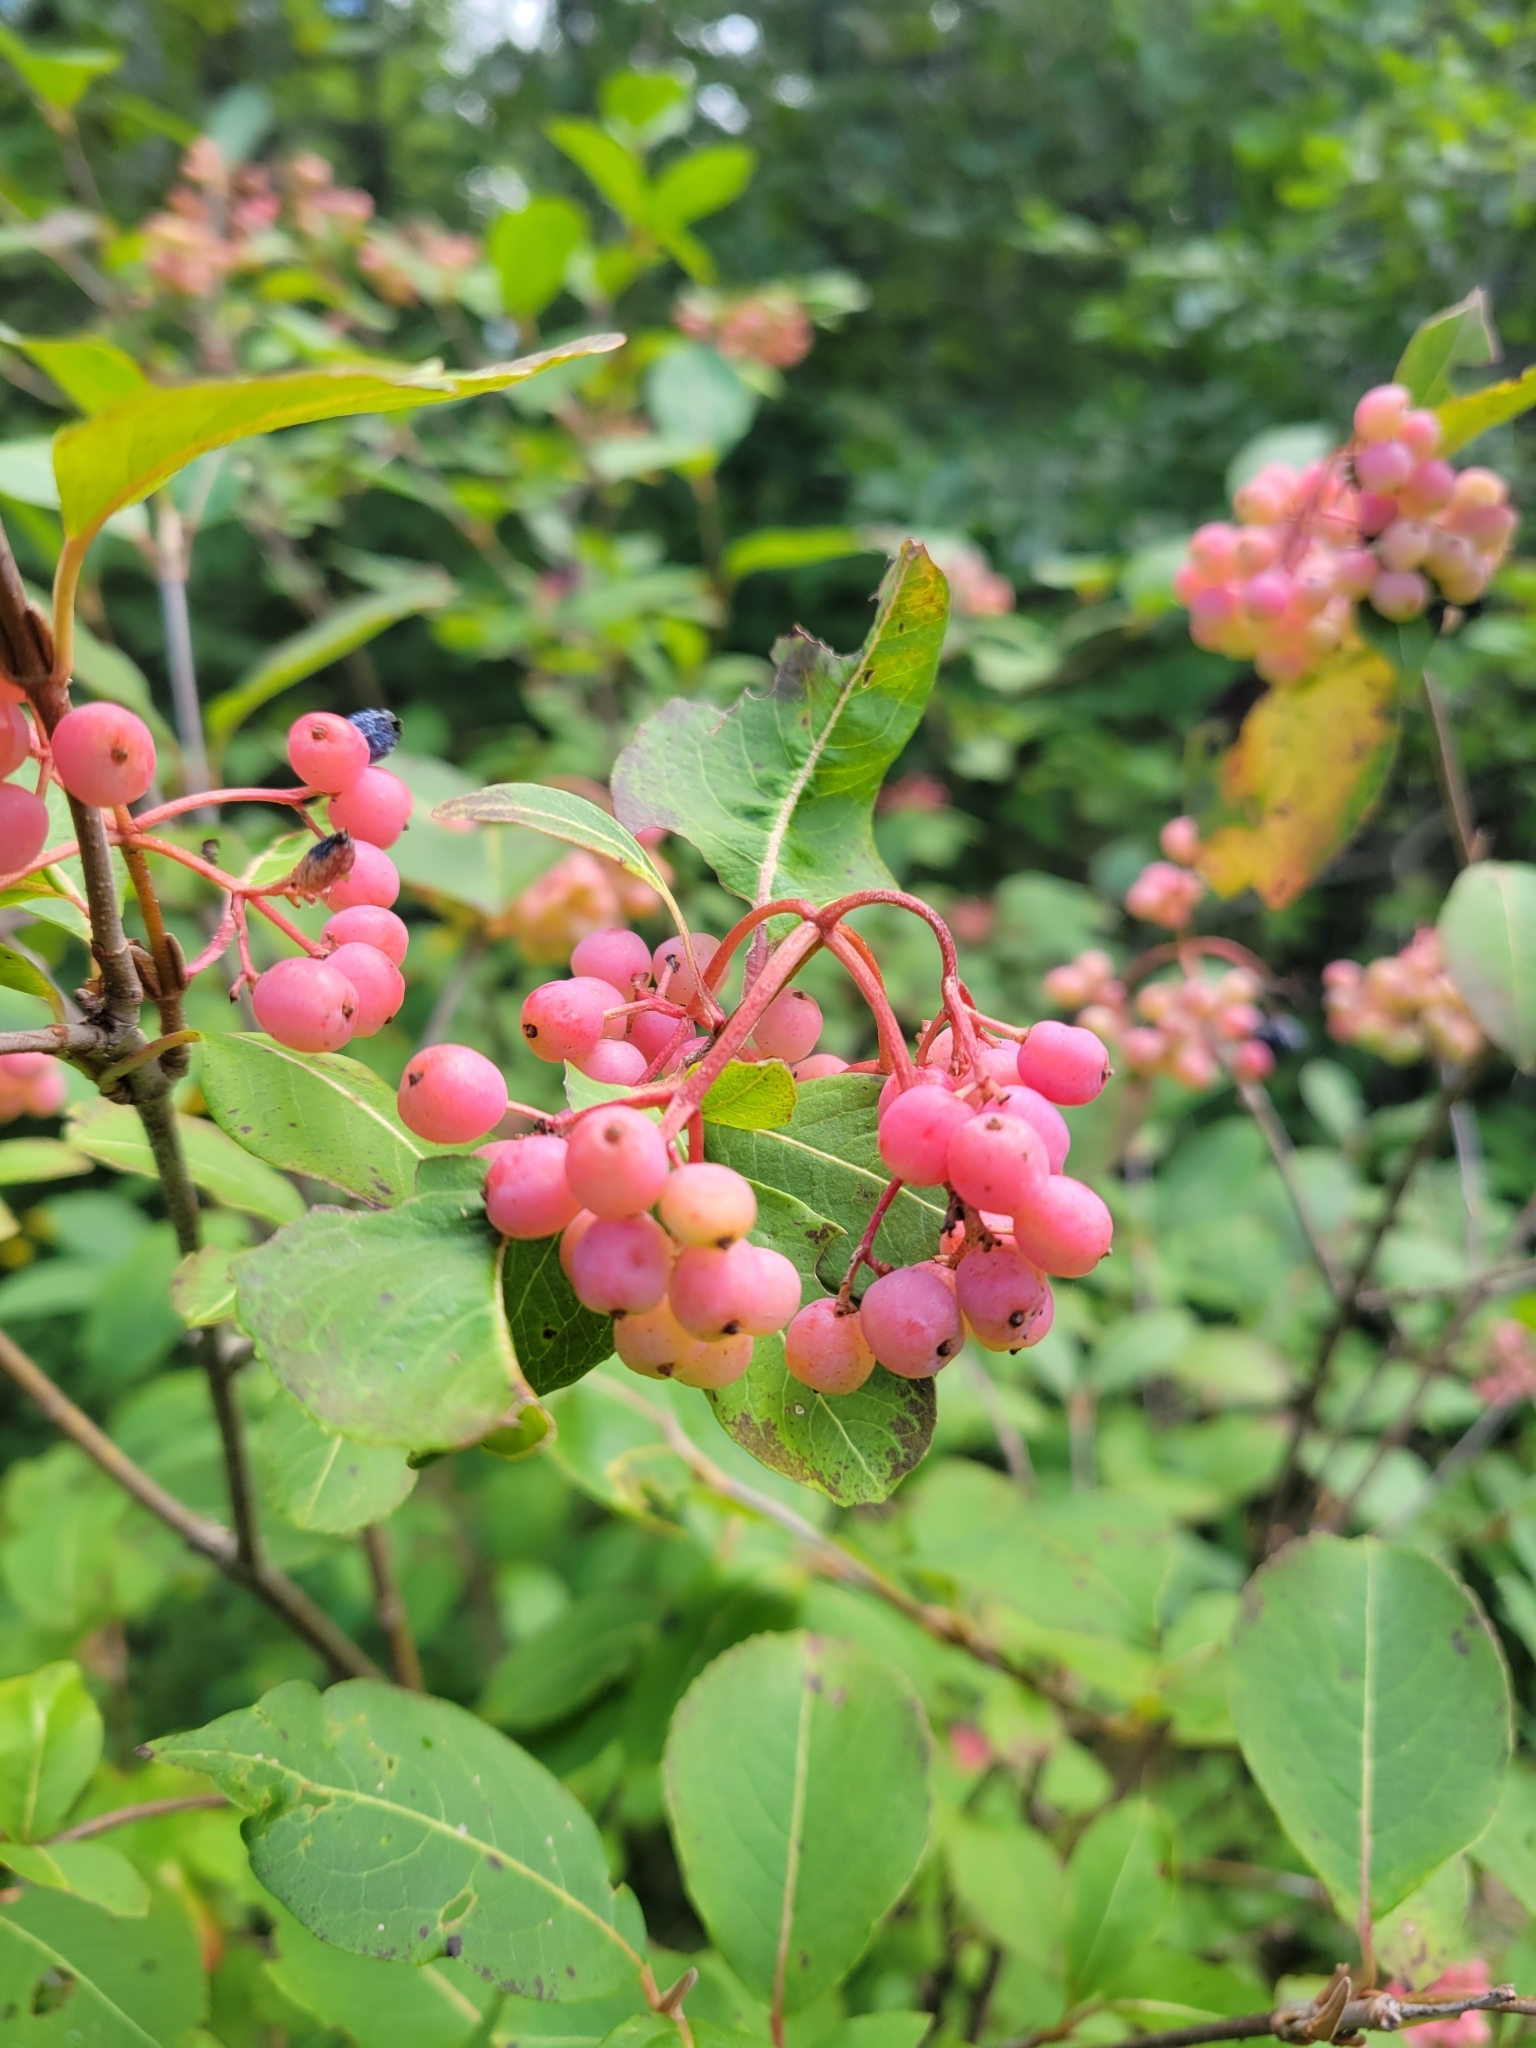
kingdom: Plantae
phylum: Tracheophyta
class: Magnoliopsida
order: Dipsacales
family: Viburnaceae
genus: Viburnum
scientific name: Viburnum cassinoides
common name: Swamp haw
